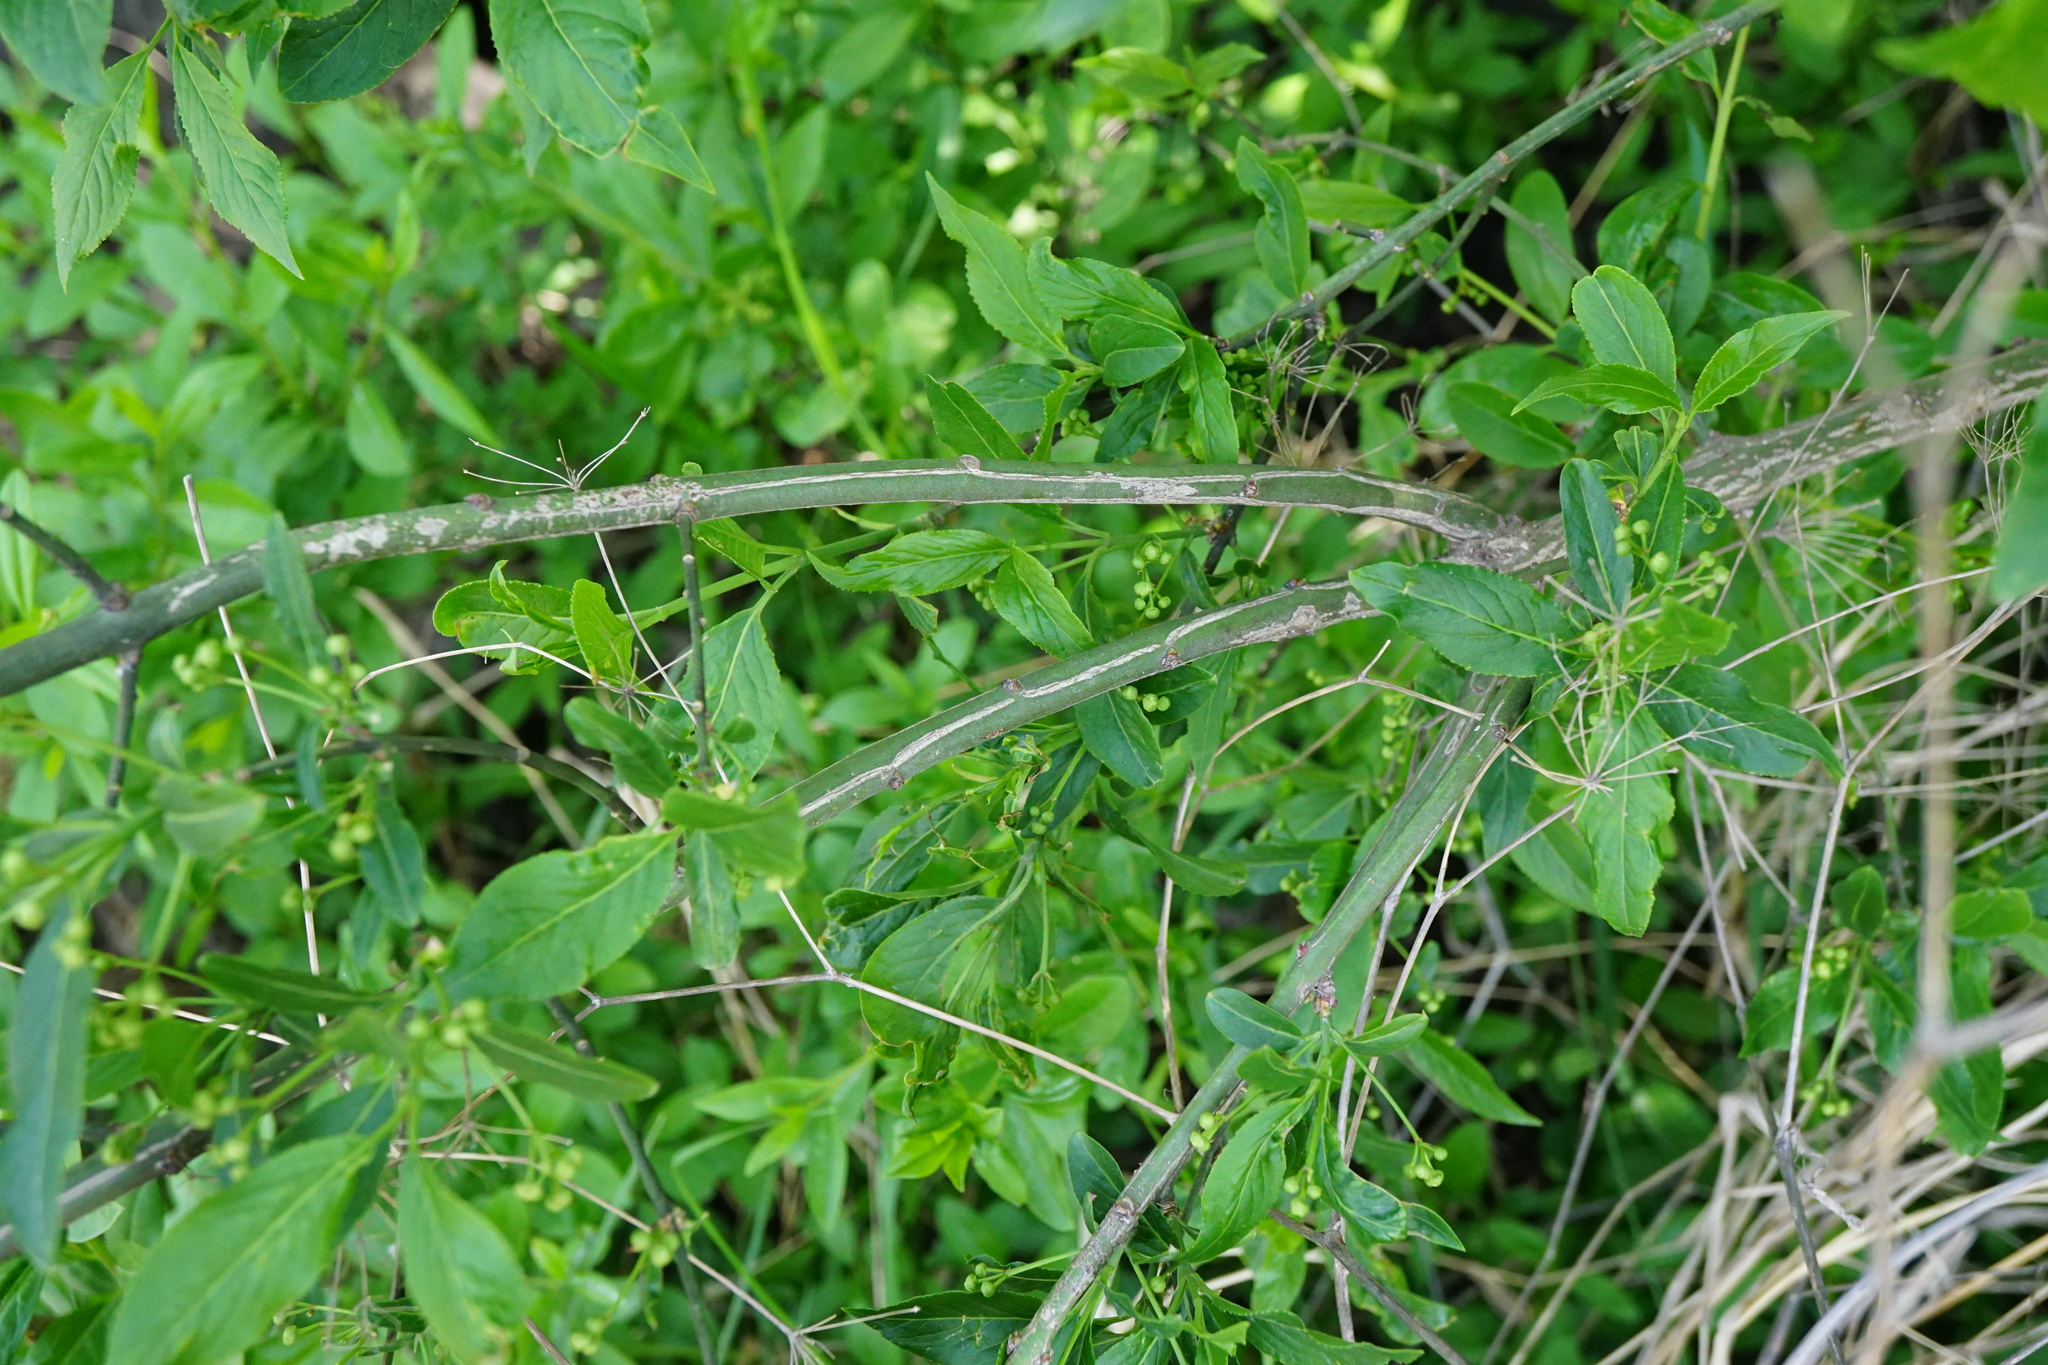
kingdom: Plantae
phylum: Tracheophyta
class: Magnoliopsida
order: Celastrales
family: Celastraceae
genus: Euonymus
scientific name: Euonymus europaeus
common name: Spindle
